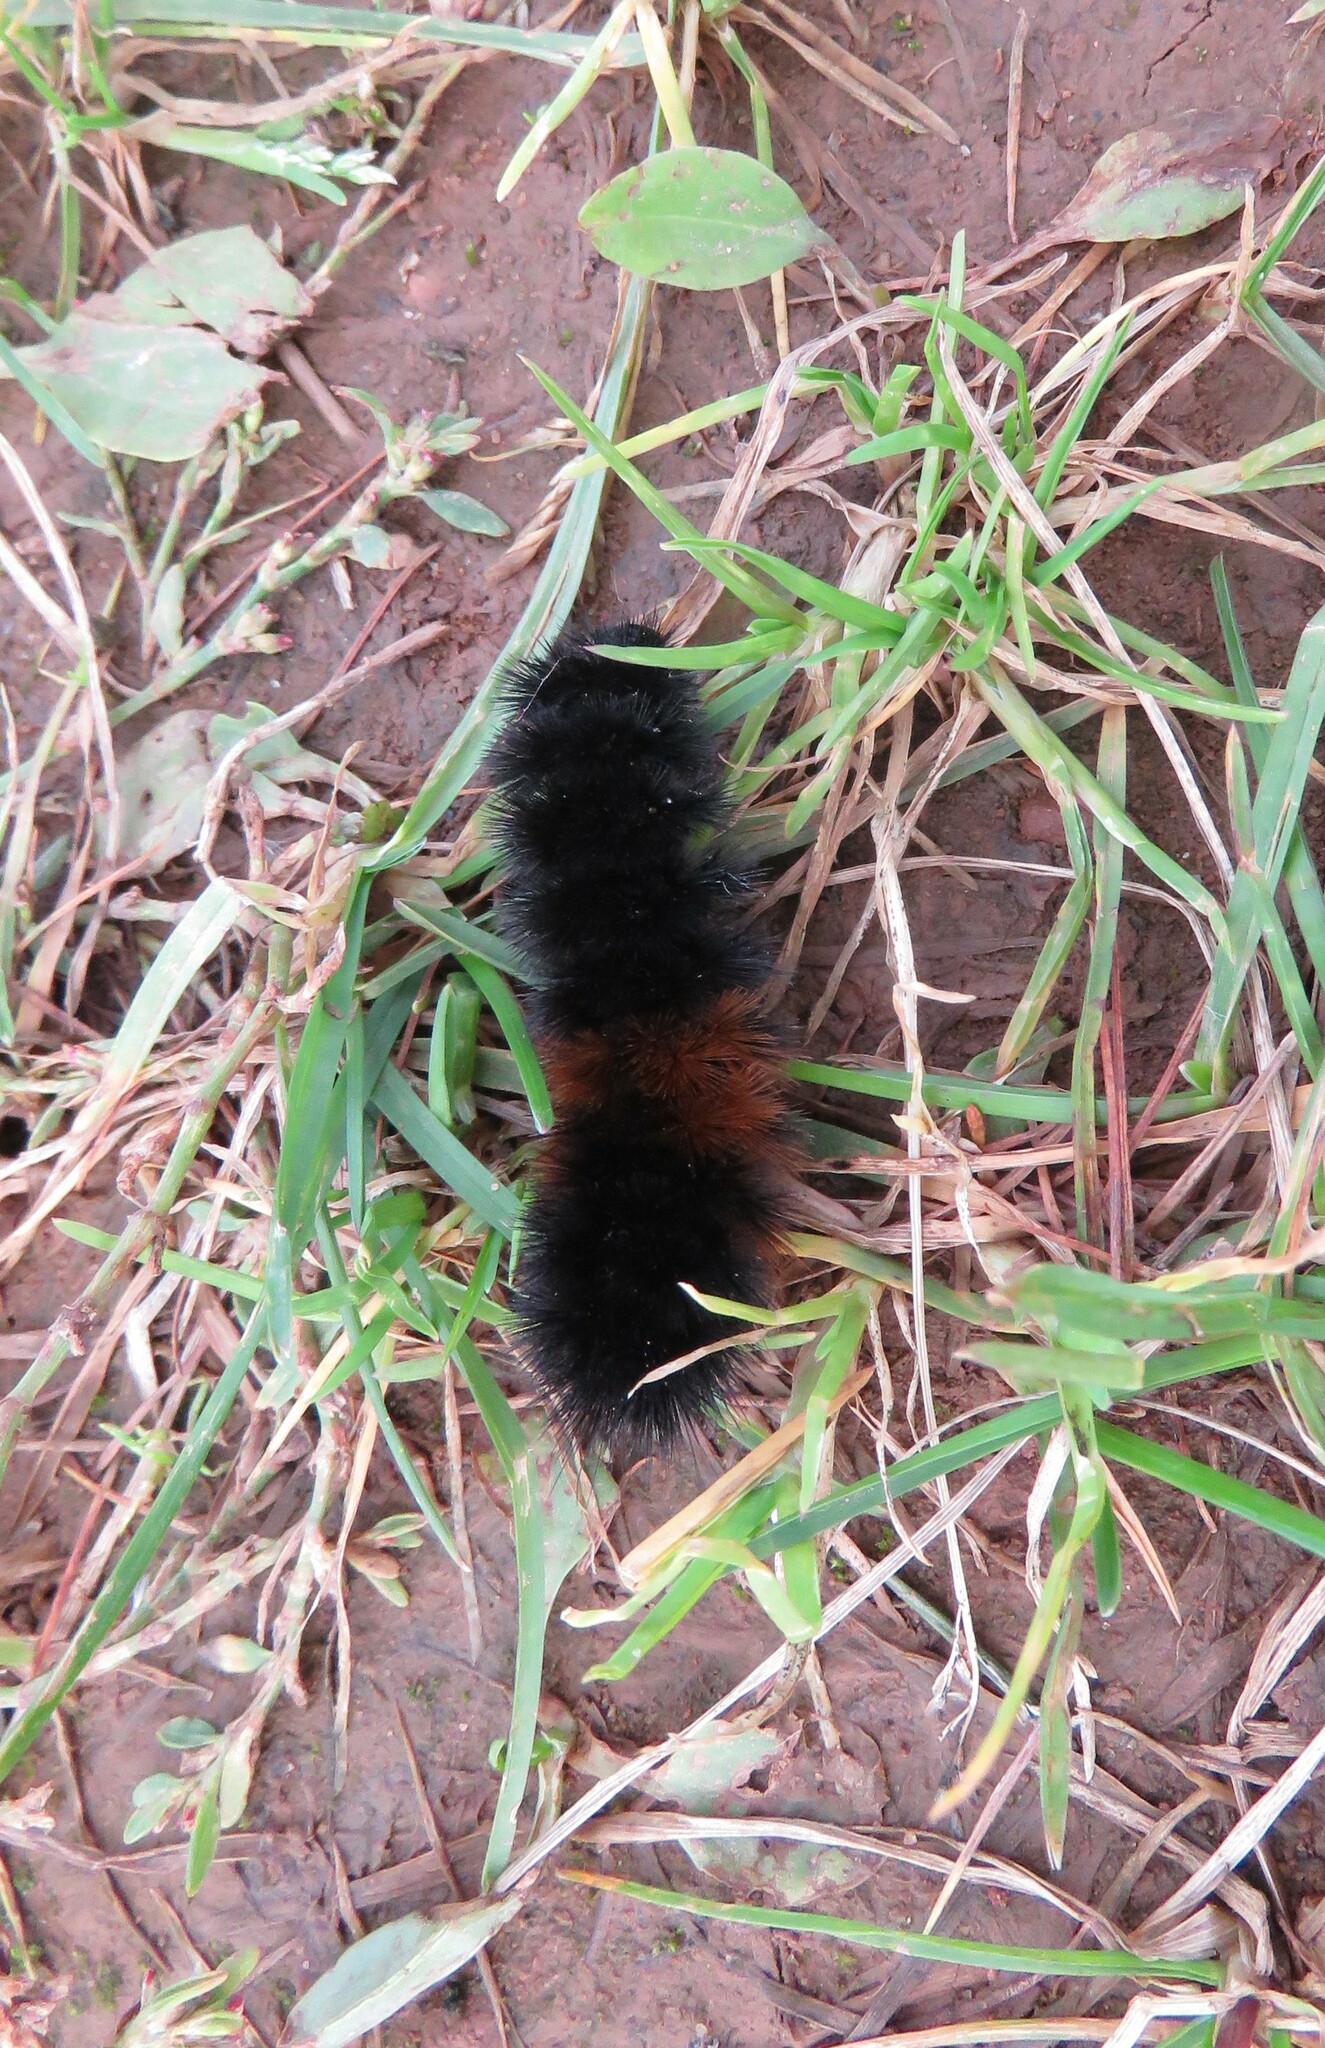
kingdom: Animalia
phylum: Arthropoda
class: Insecta
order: Lepidoptera
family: Erebidae
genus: Pyrrharctia
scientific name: Pyrrharctia isabella
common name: Isabella tiger moth
